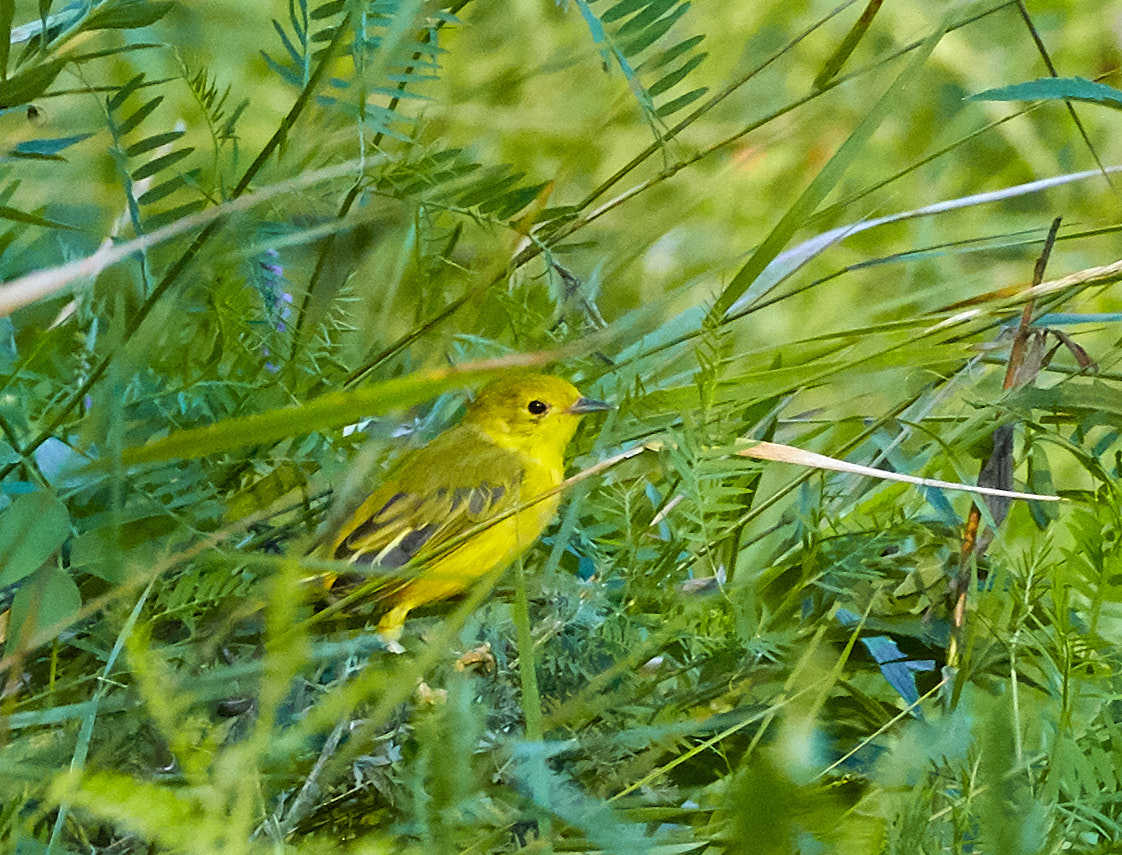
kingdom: Animalia
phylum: Chordata
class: Aves
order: Passeriformes
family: Parulidae
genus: Setophaga
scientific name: Setophaga petechia
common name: Yellow warbler
